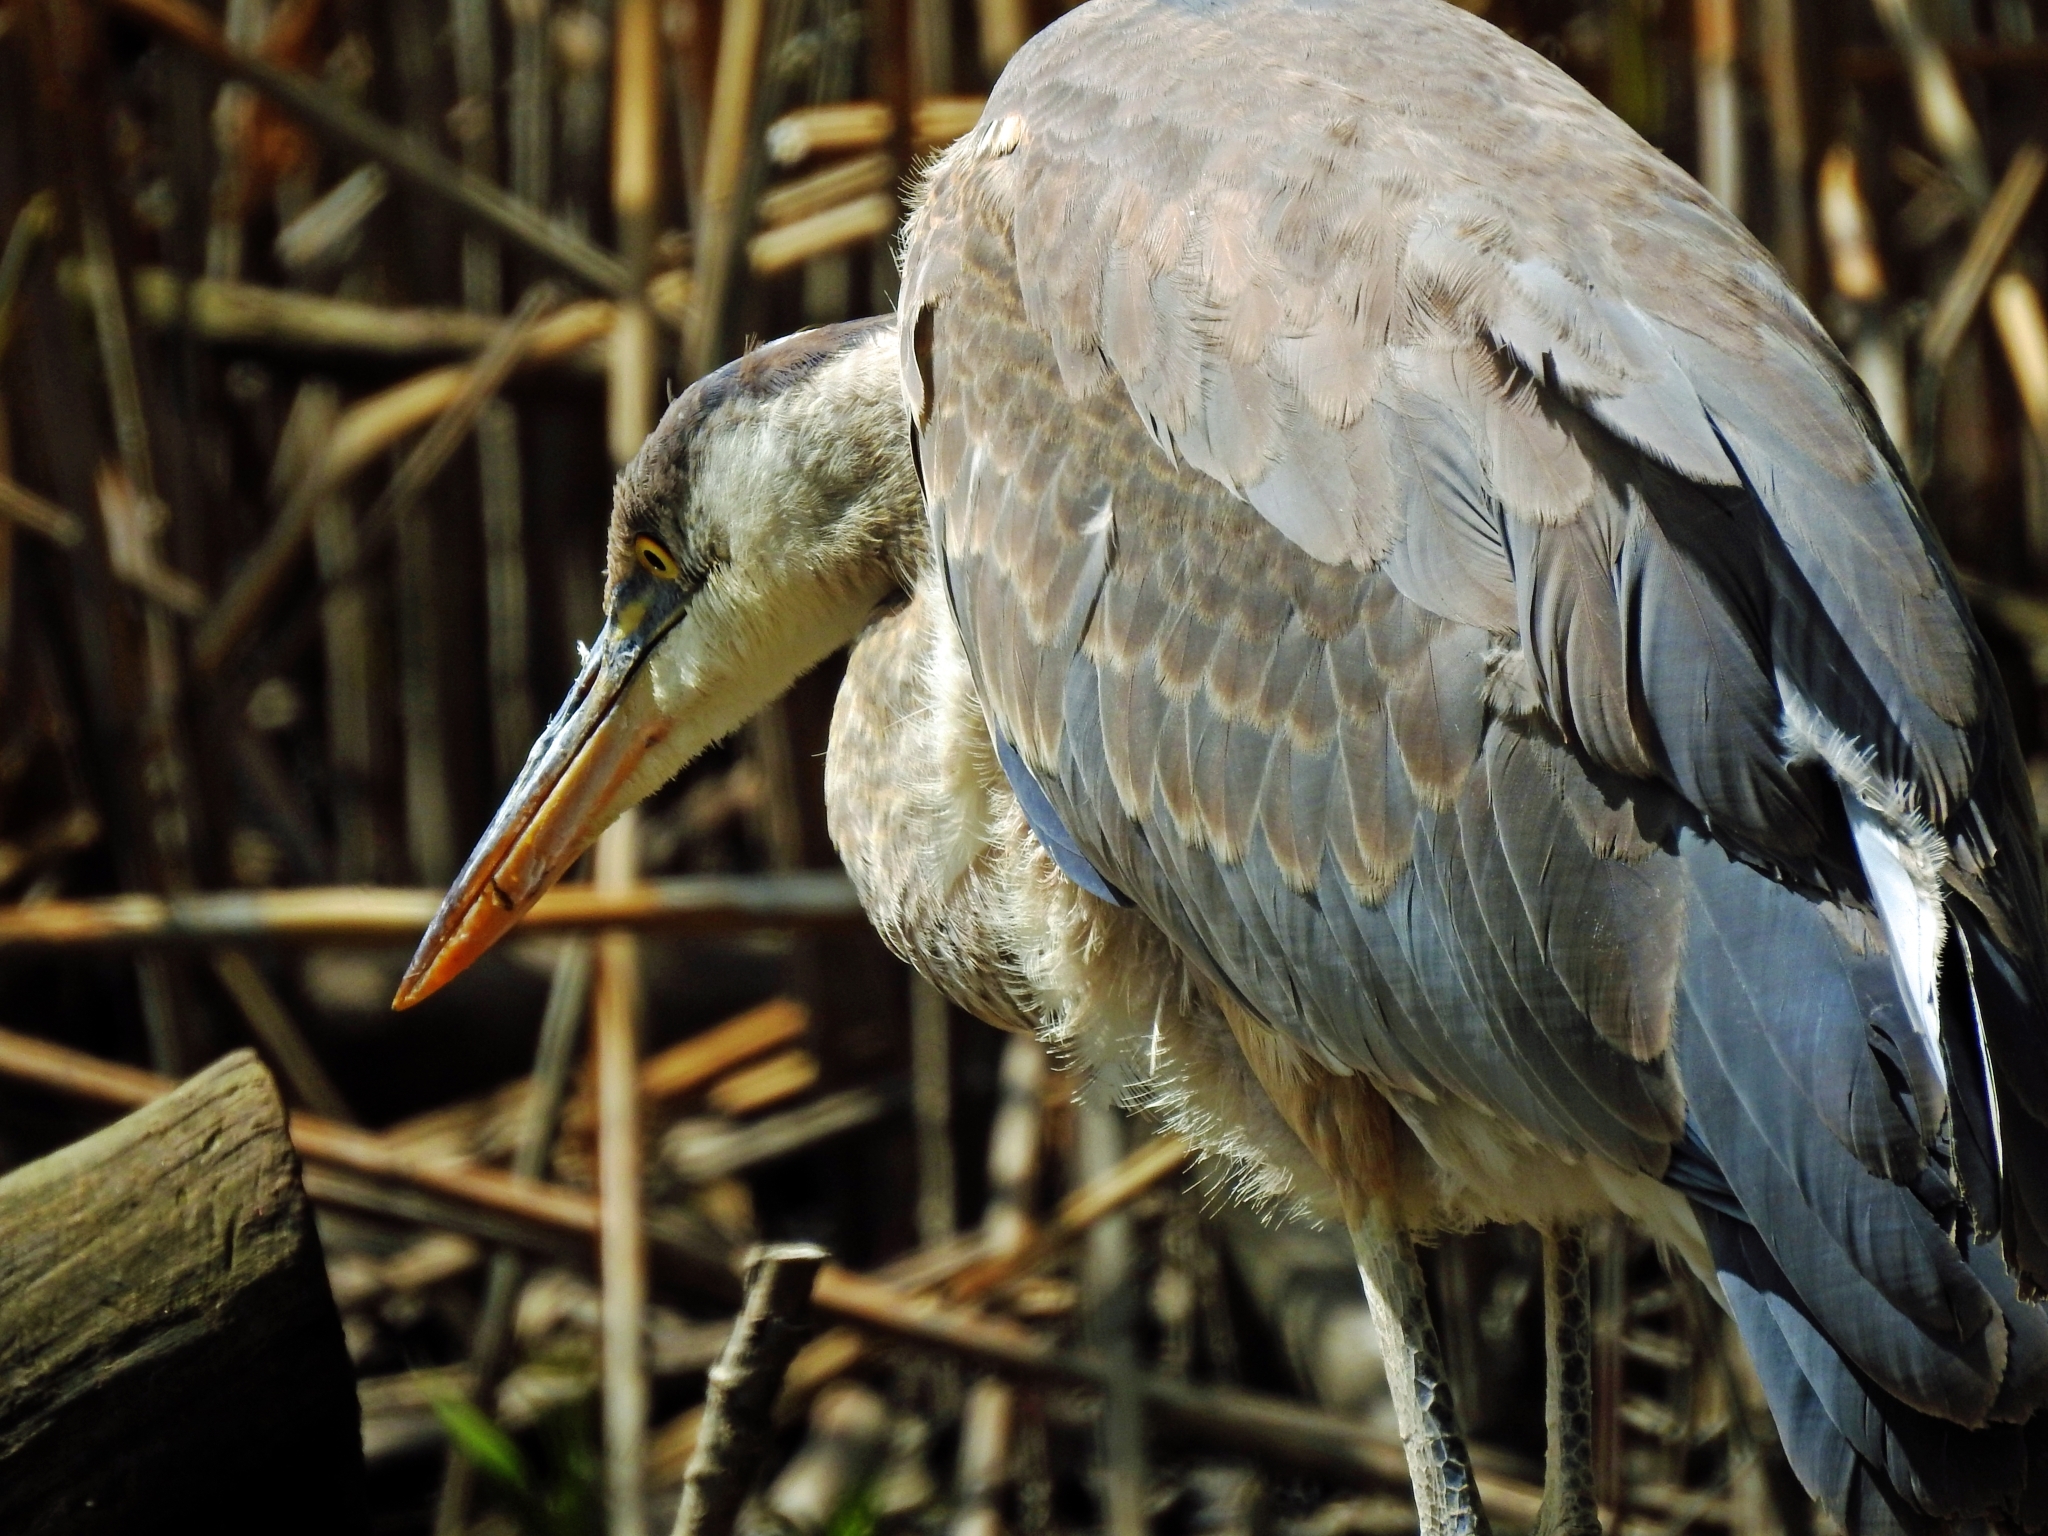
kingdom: Animalia
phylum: Chordata
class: Aves
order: Pelecaniformes
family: Ardeidae
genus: Ardea
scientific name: Ardea herodias
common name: Great blue heron
